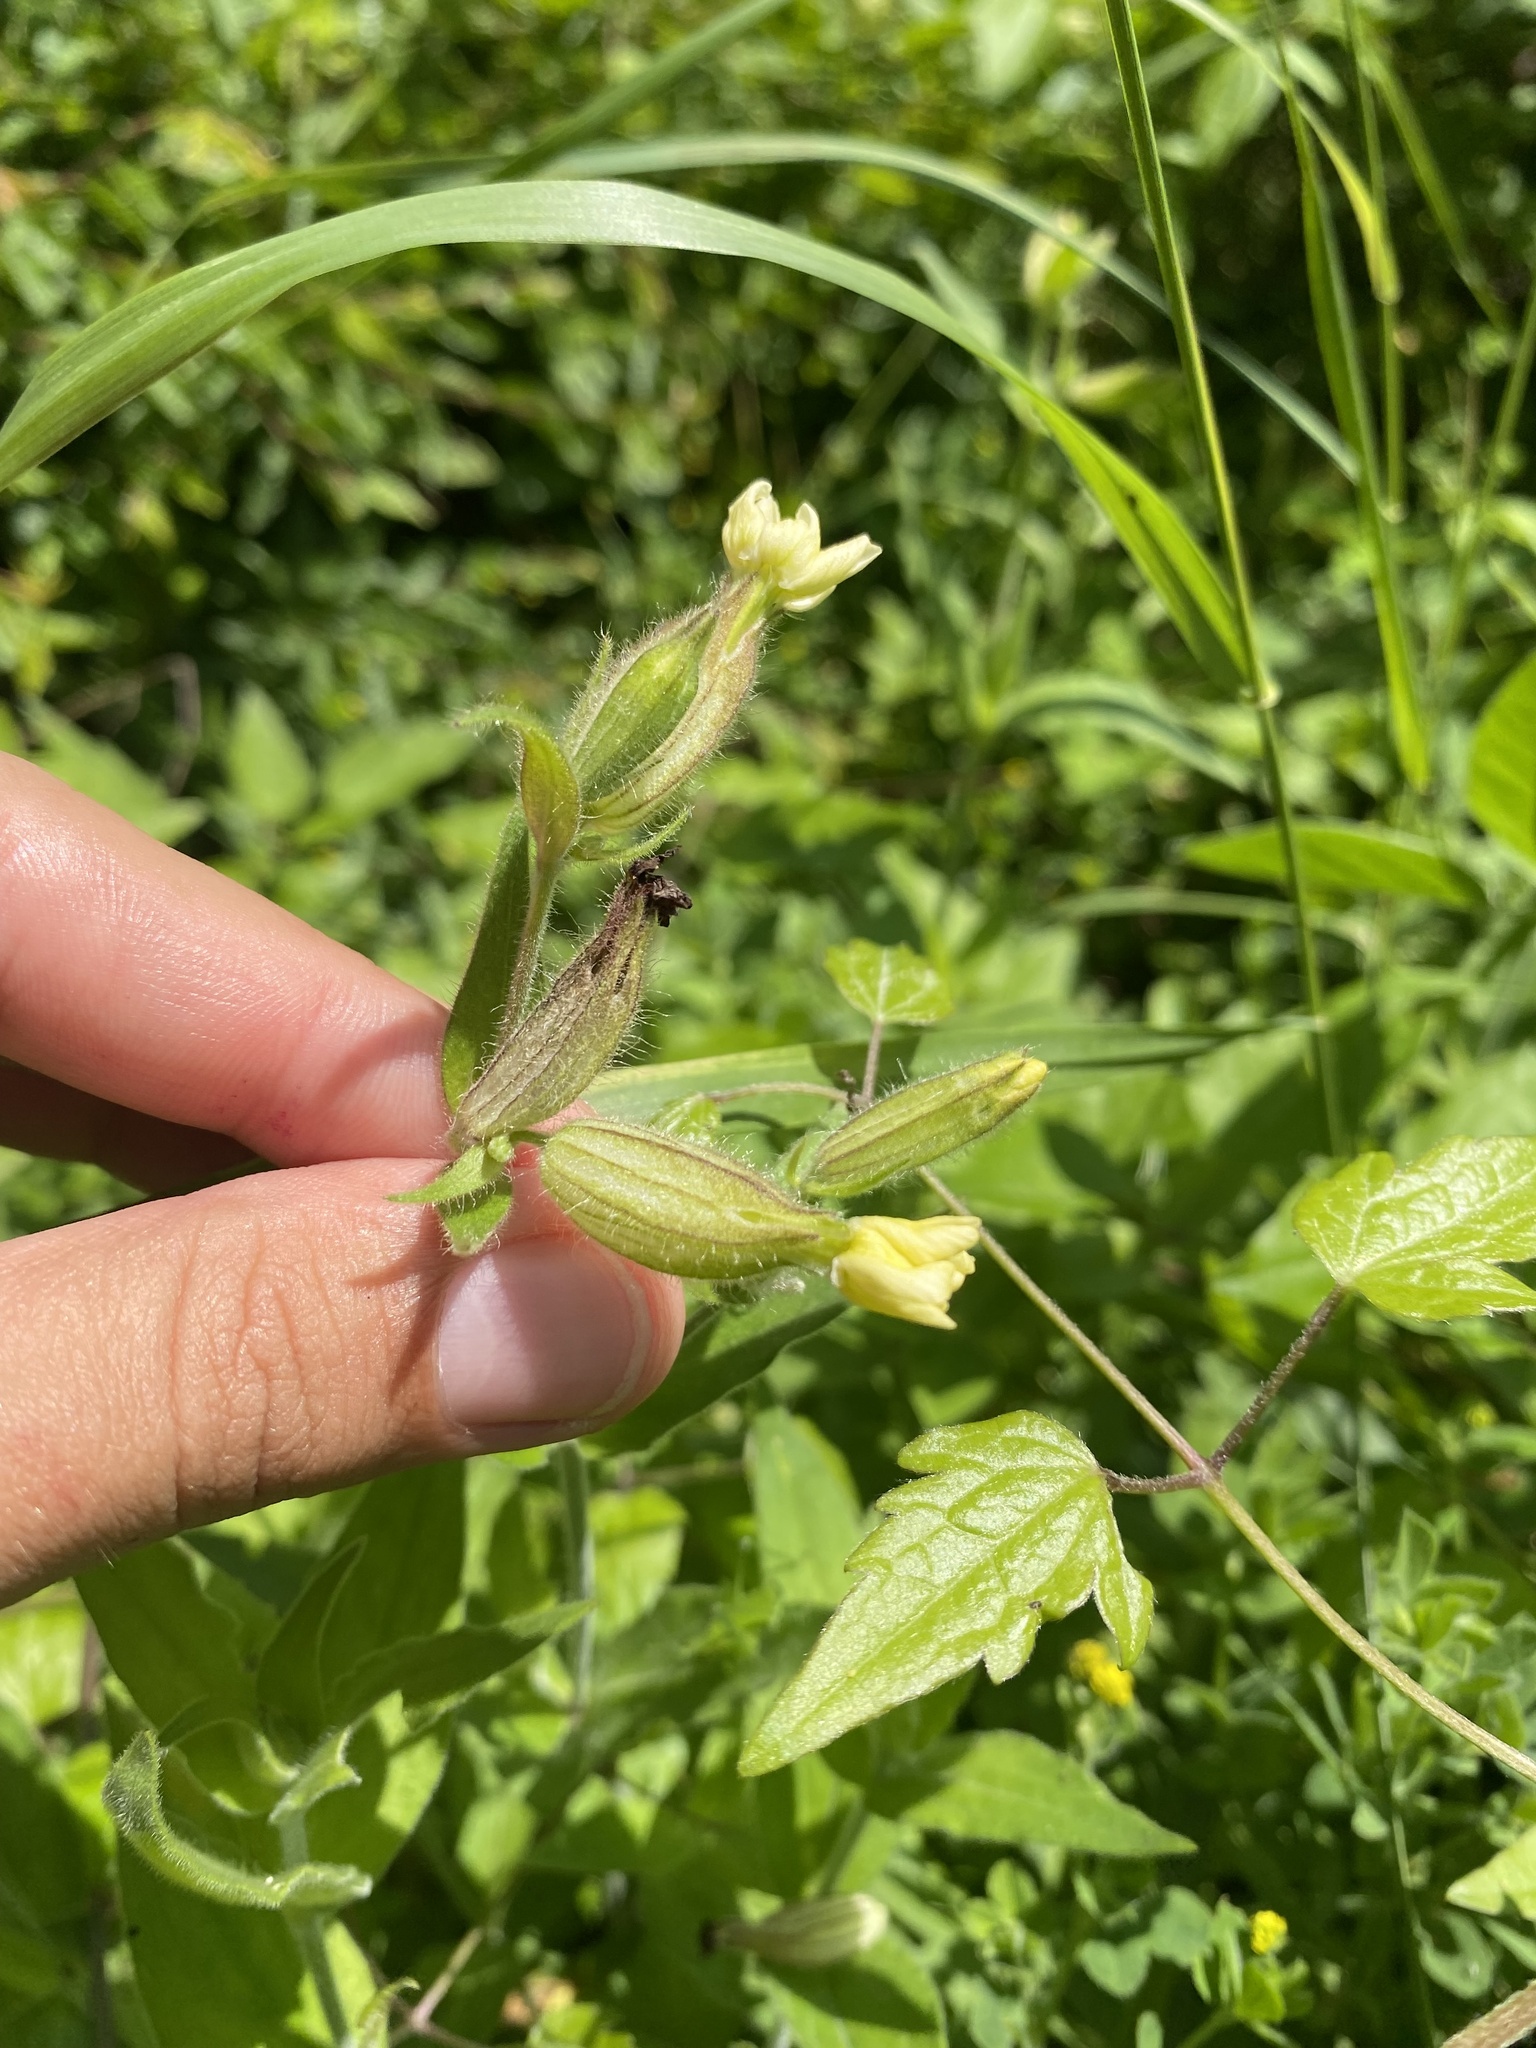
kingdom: Plantae
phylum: Tracheophyta
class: Magnoliopsida
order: Caryophyllales
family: Caryophyllaceae
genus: Silene
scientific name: Silene latifolia
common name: White campion
